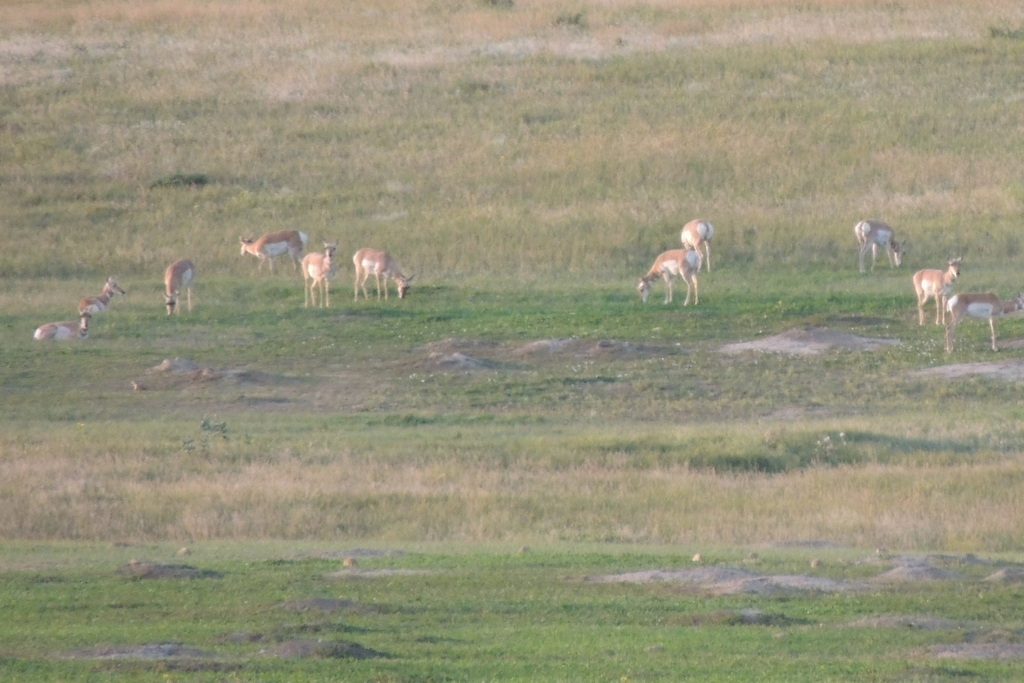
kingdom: Animalia
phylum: Chordata
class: Mammalia
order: Artiodactyla
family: Antilocapridae
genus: Antilocapra
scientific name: Antilocapra americana
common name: Pronghorn
